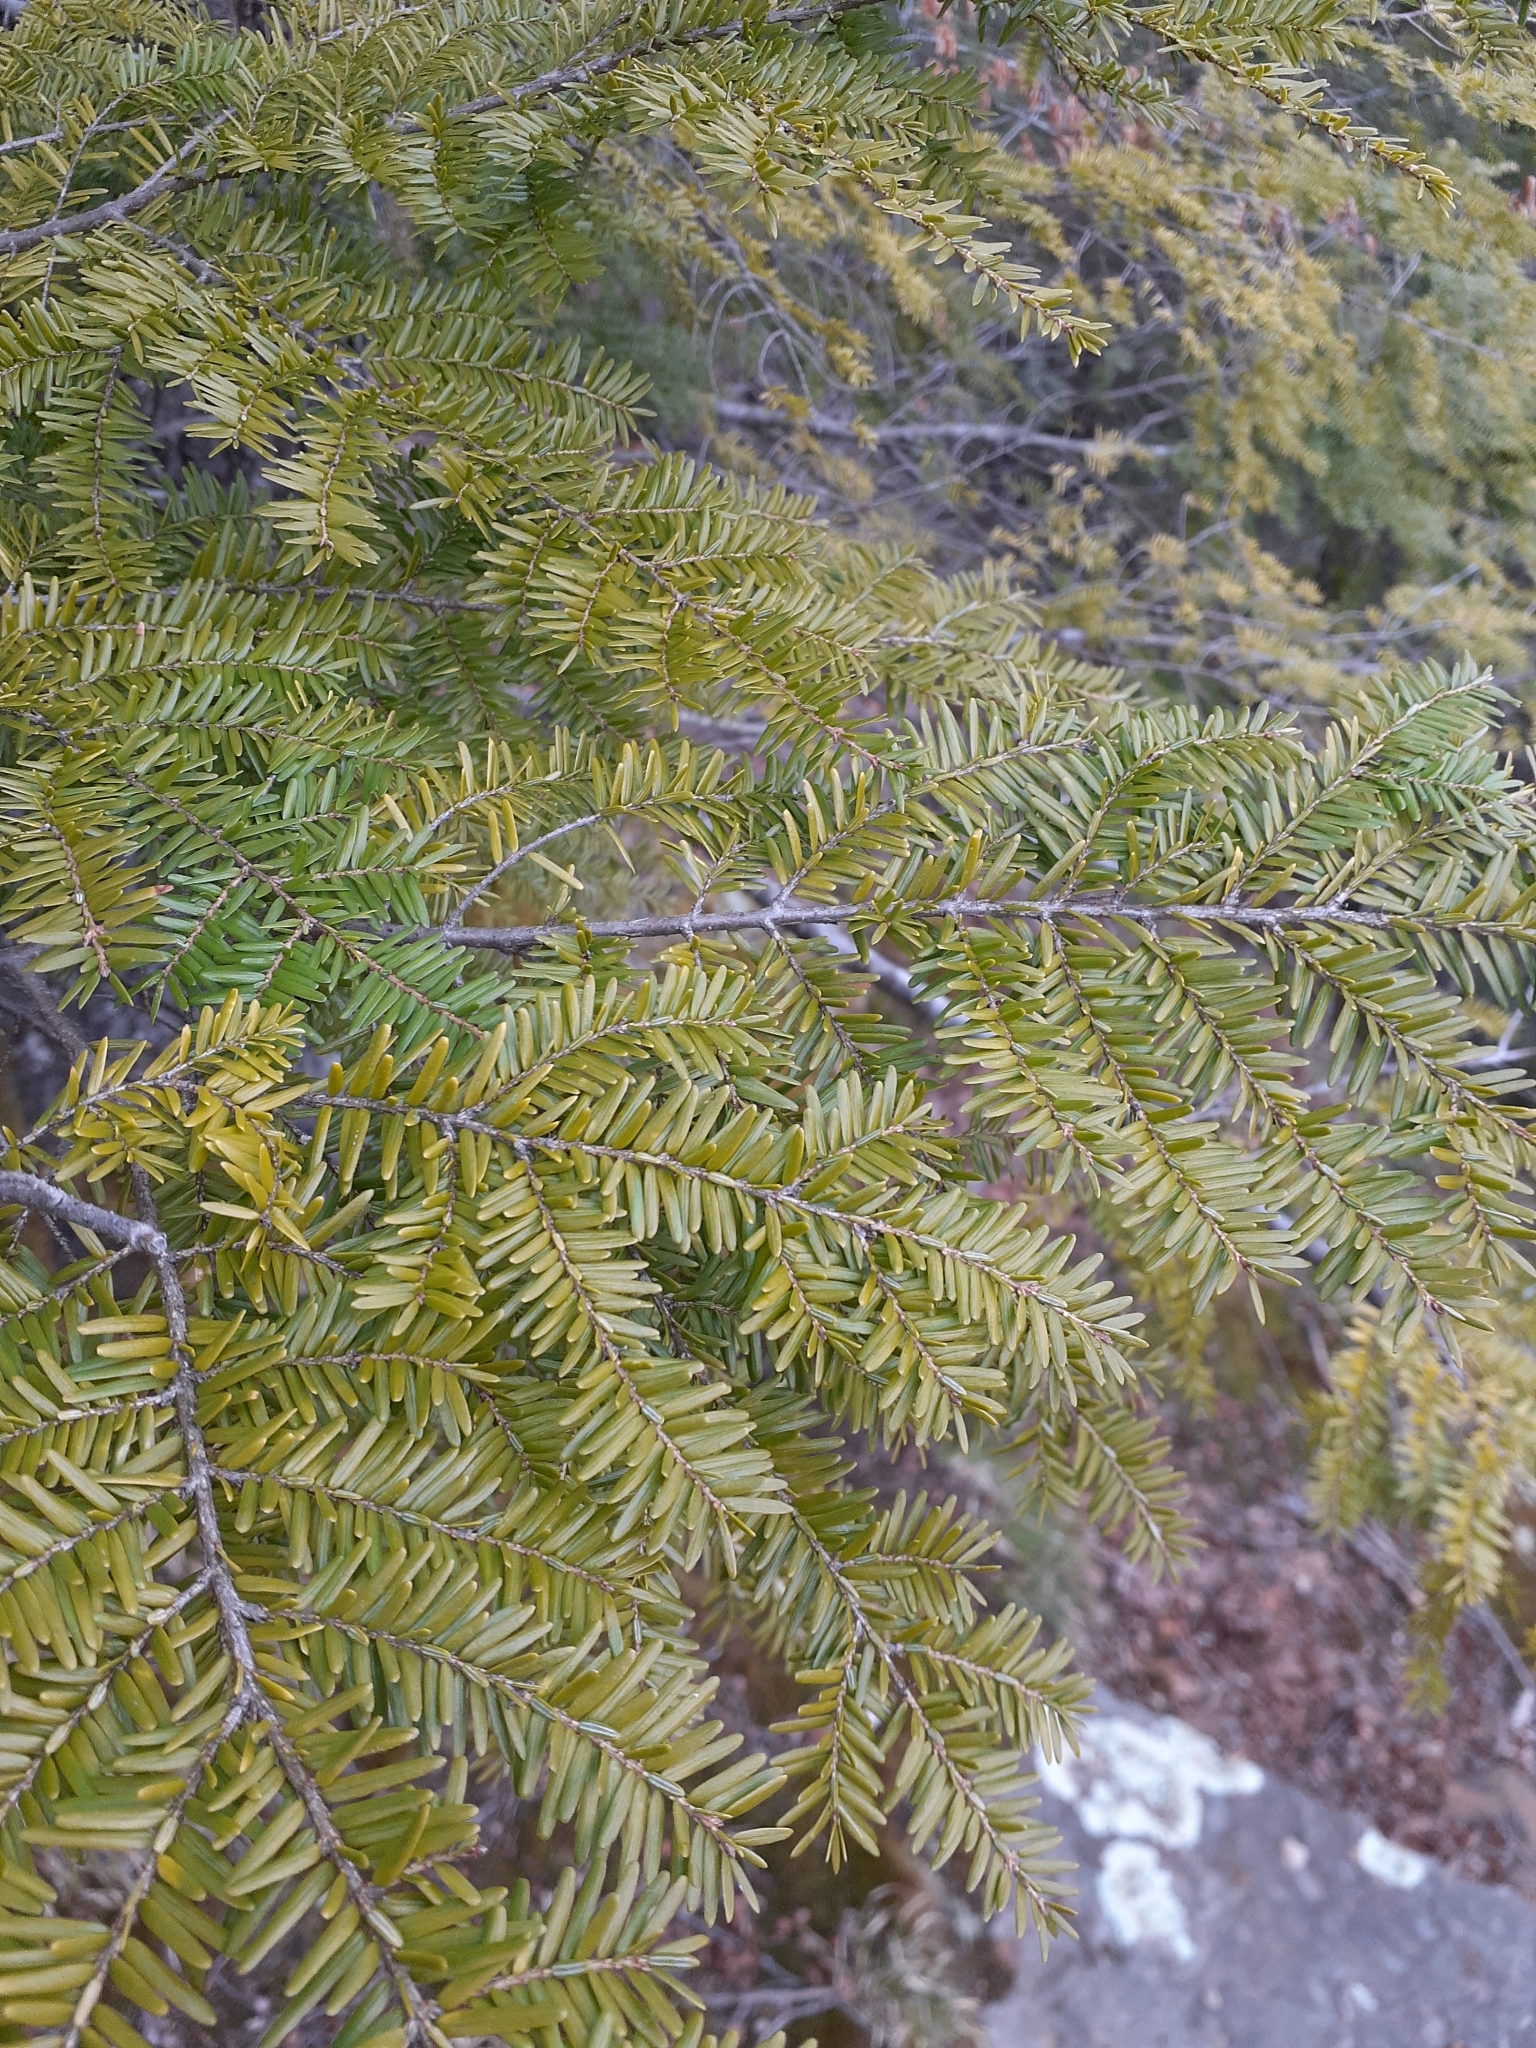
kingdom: Plantae
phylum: Tracheophyta
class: Pinopsida
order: Pinales
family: Pinaceae
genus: Tsuga
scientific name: Tsuga canadensis
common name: Eastern hemlock
